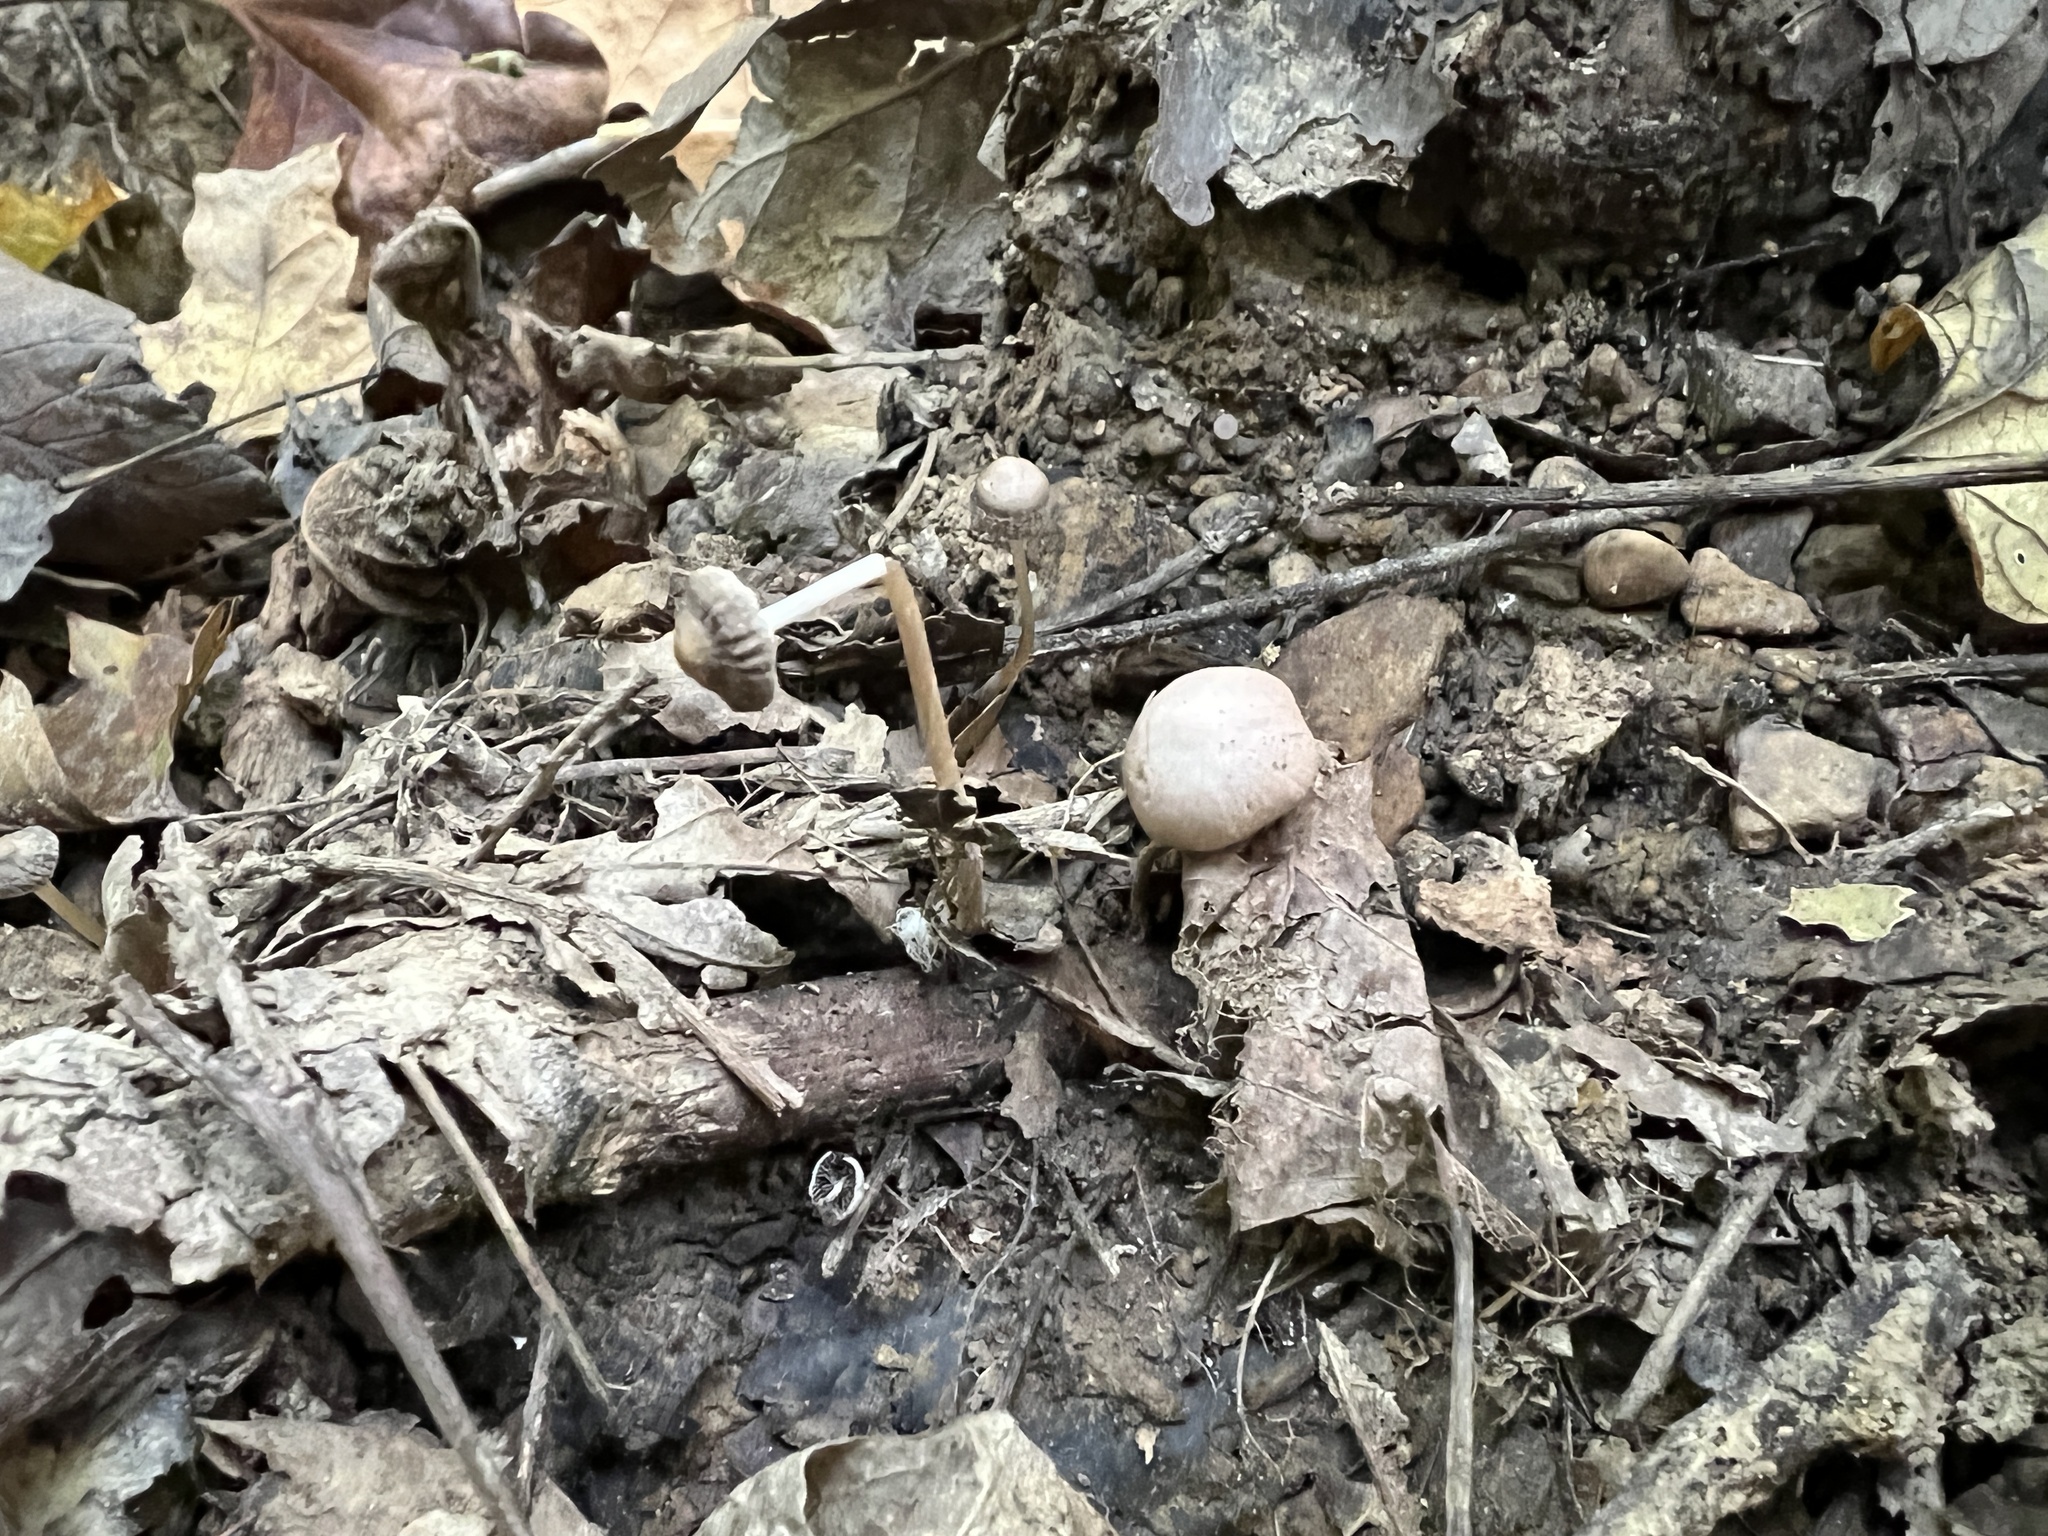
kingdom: Fungi
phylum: Basidiomycota
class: Agaricomycetes
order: Agaricales
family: Psathyrellaceae
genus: Psathyrella
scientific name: Psathyrella microrhiza
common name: Rootlet brittlestem
